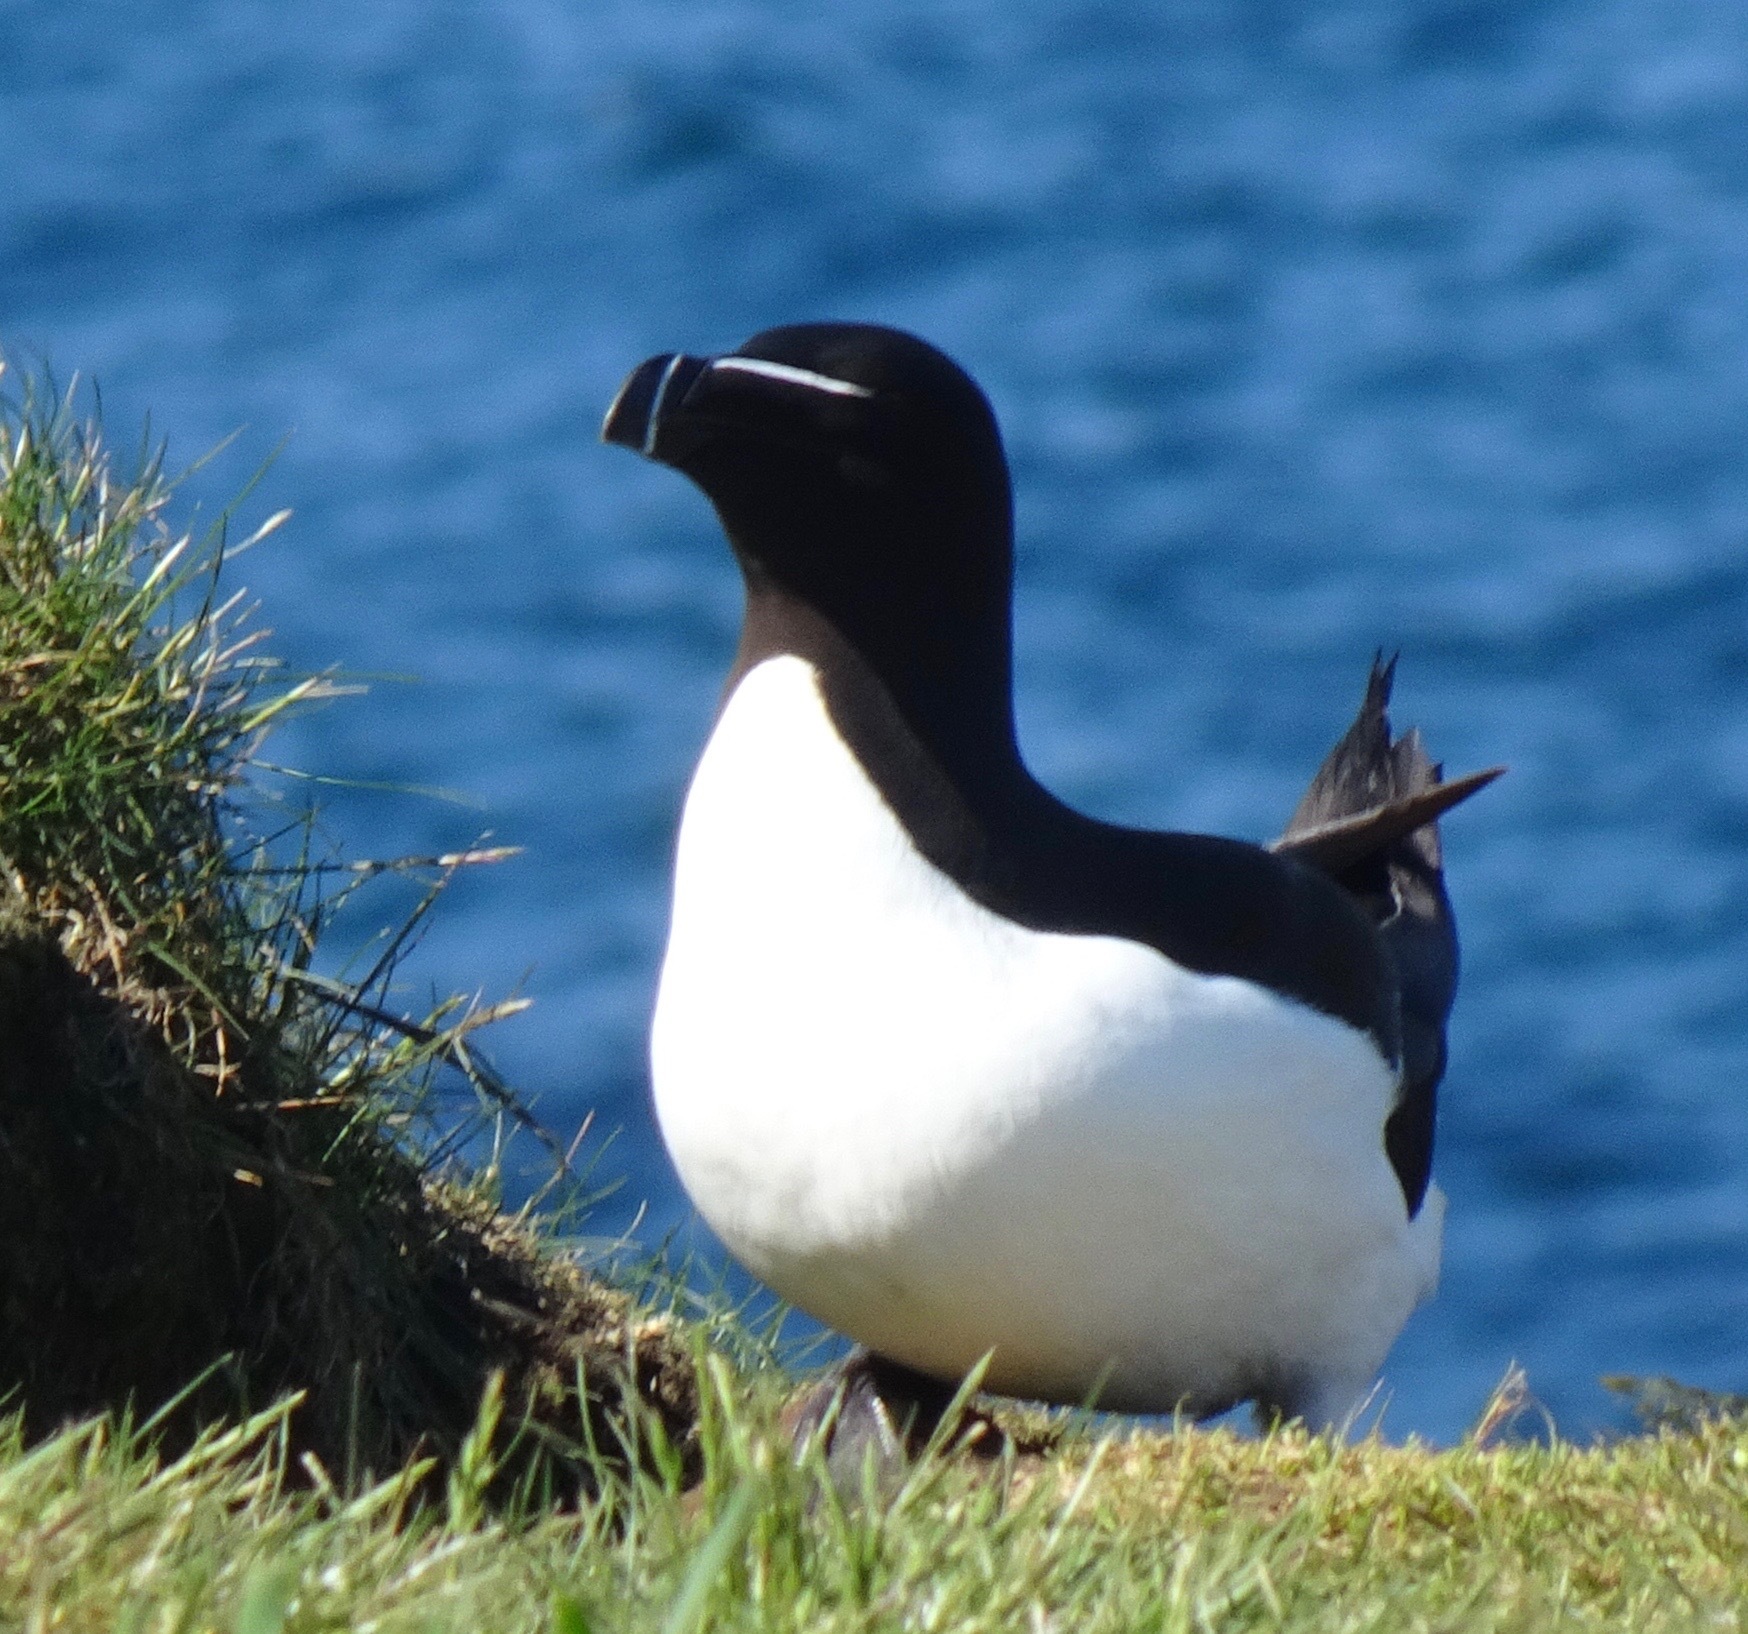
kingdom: Animalia
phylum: Chordata
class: Aves
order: Charadriiformes
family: Alcidae
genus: Alca
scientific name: Alca torda
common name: Razorbill
